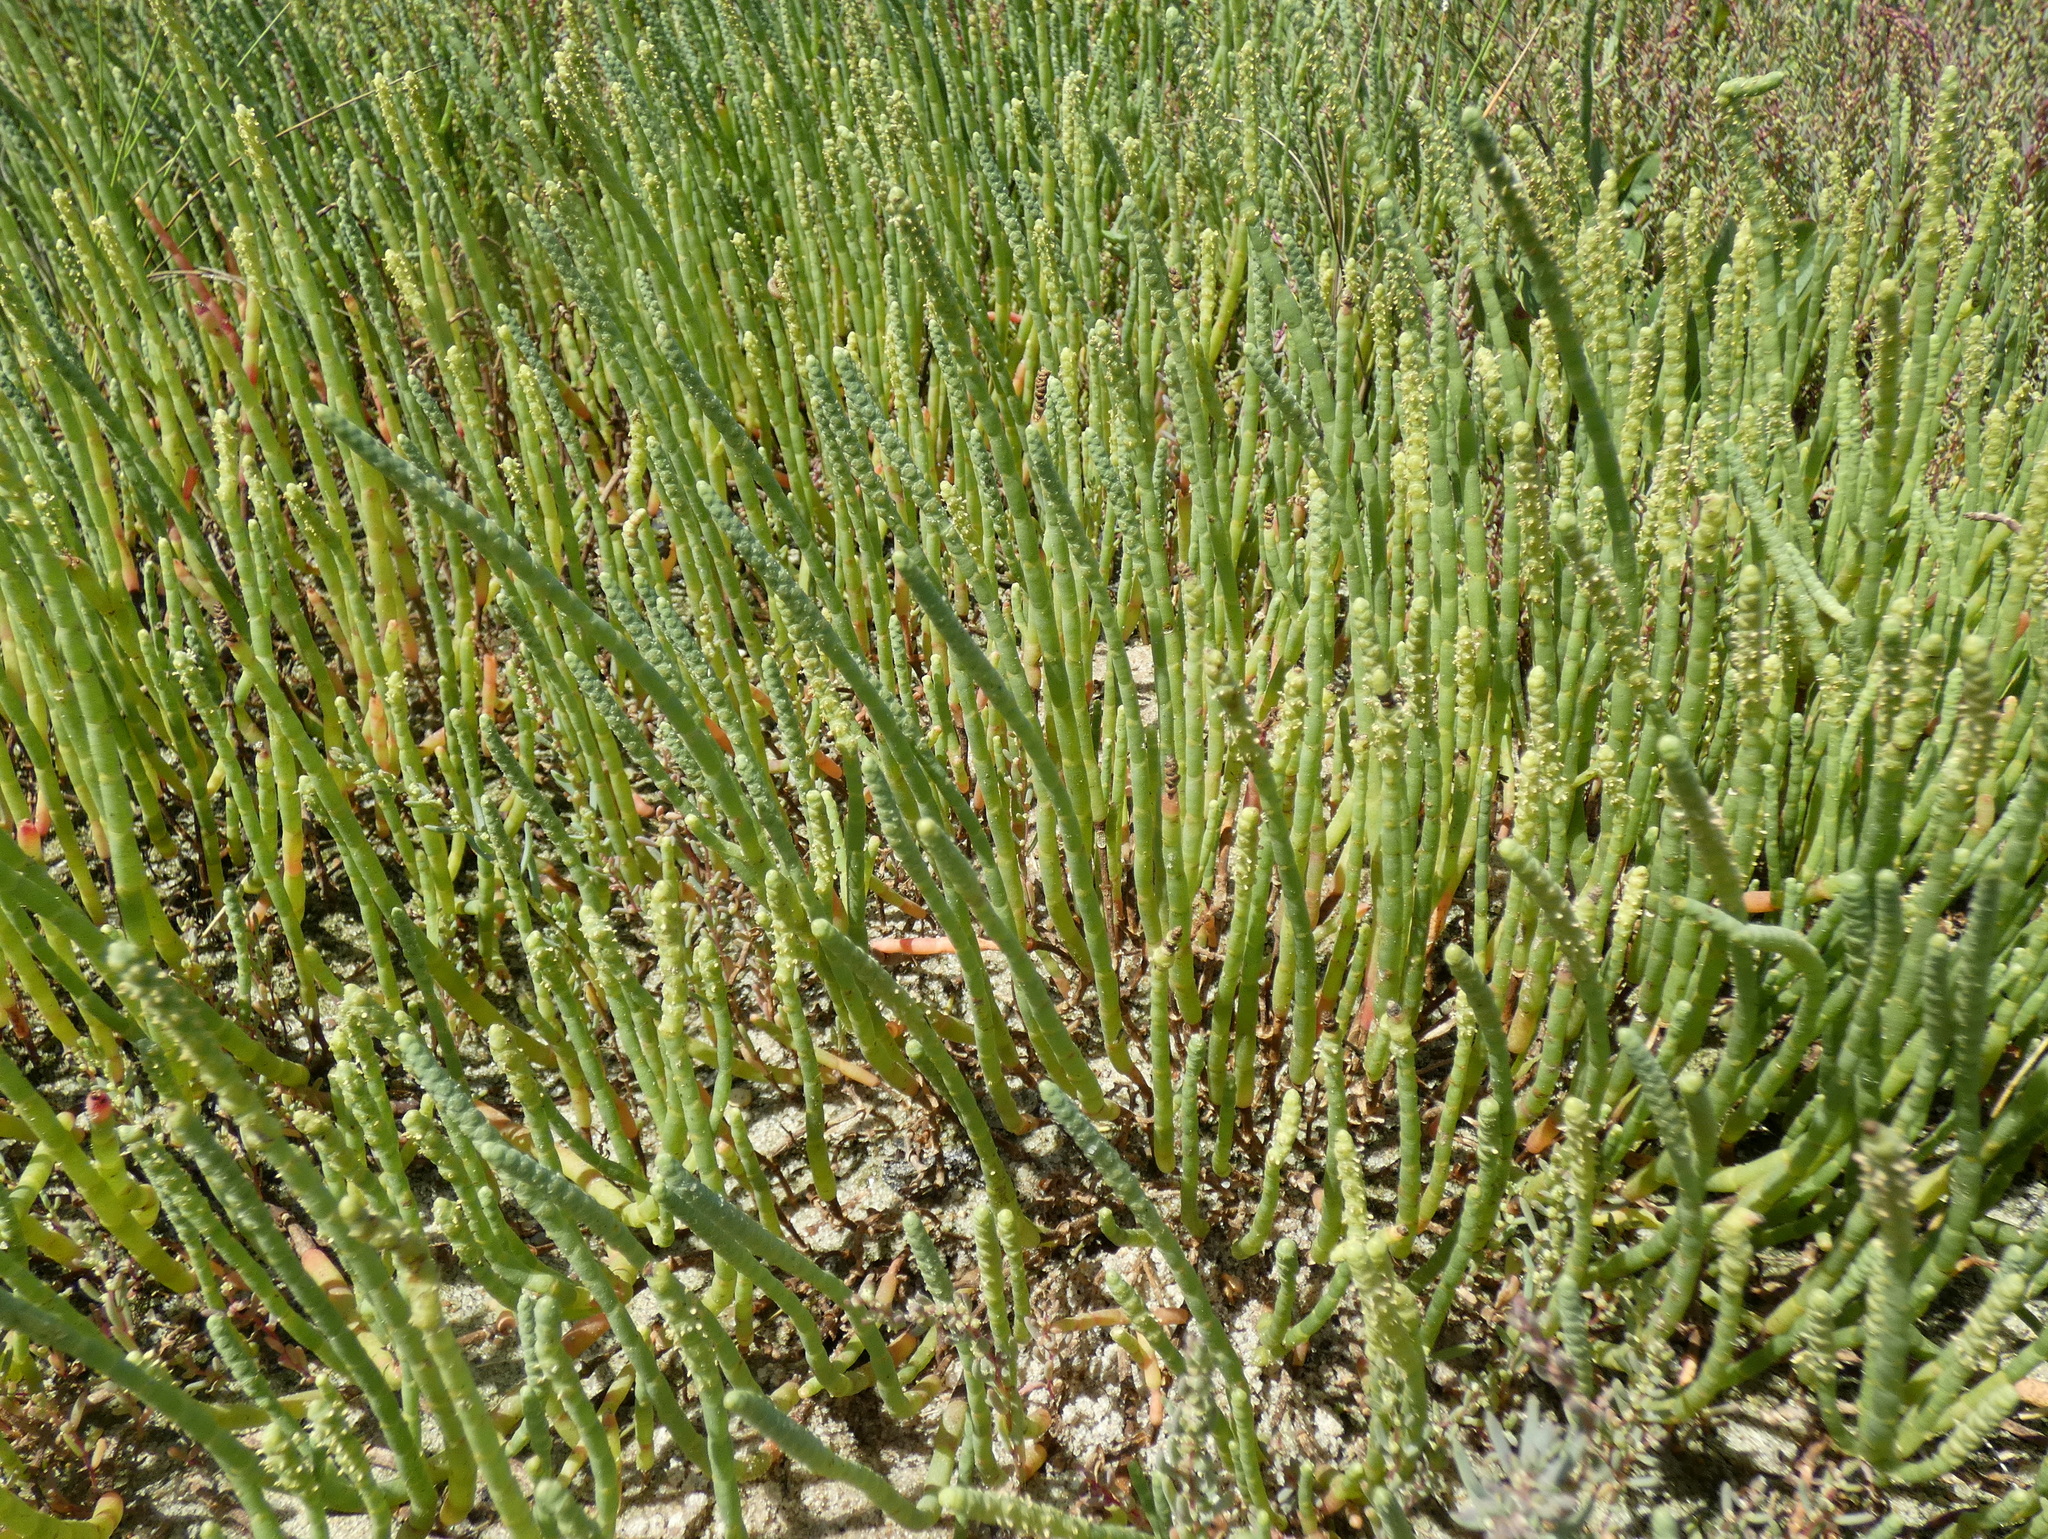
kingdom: Plantae
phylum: Tracheophyta
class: Magnoliopsida
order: Caryophyllales
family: Amaranthaceae
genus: Salicornia
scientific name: Salicornia perennis
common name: Chicken claws
